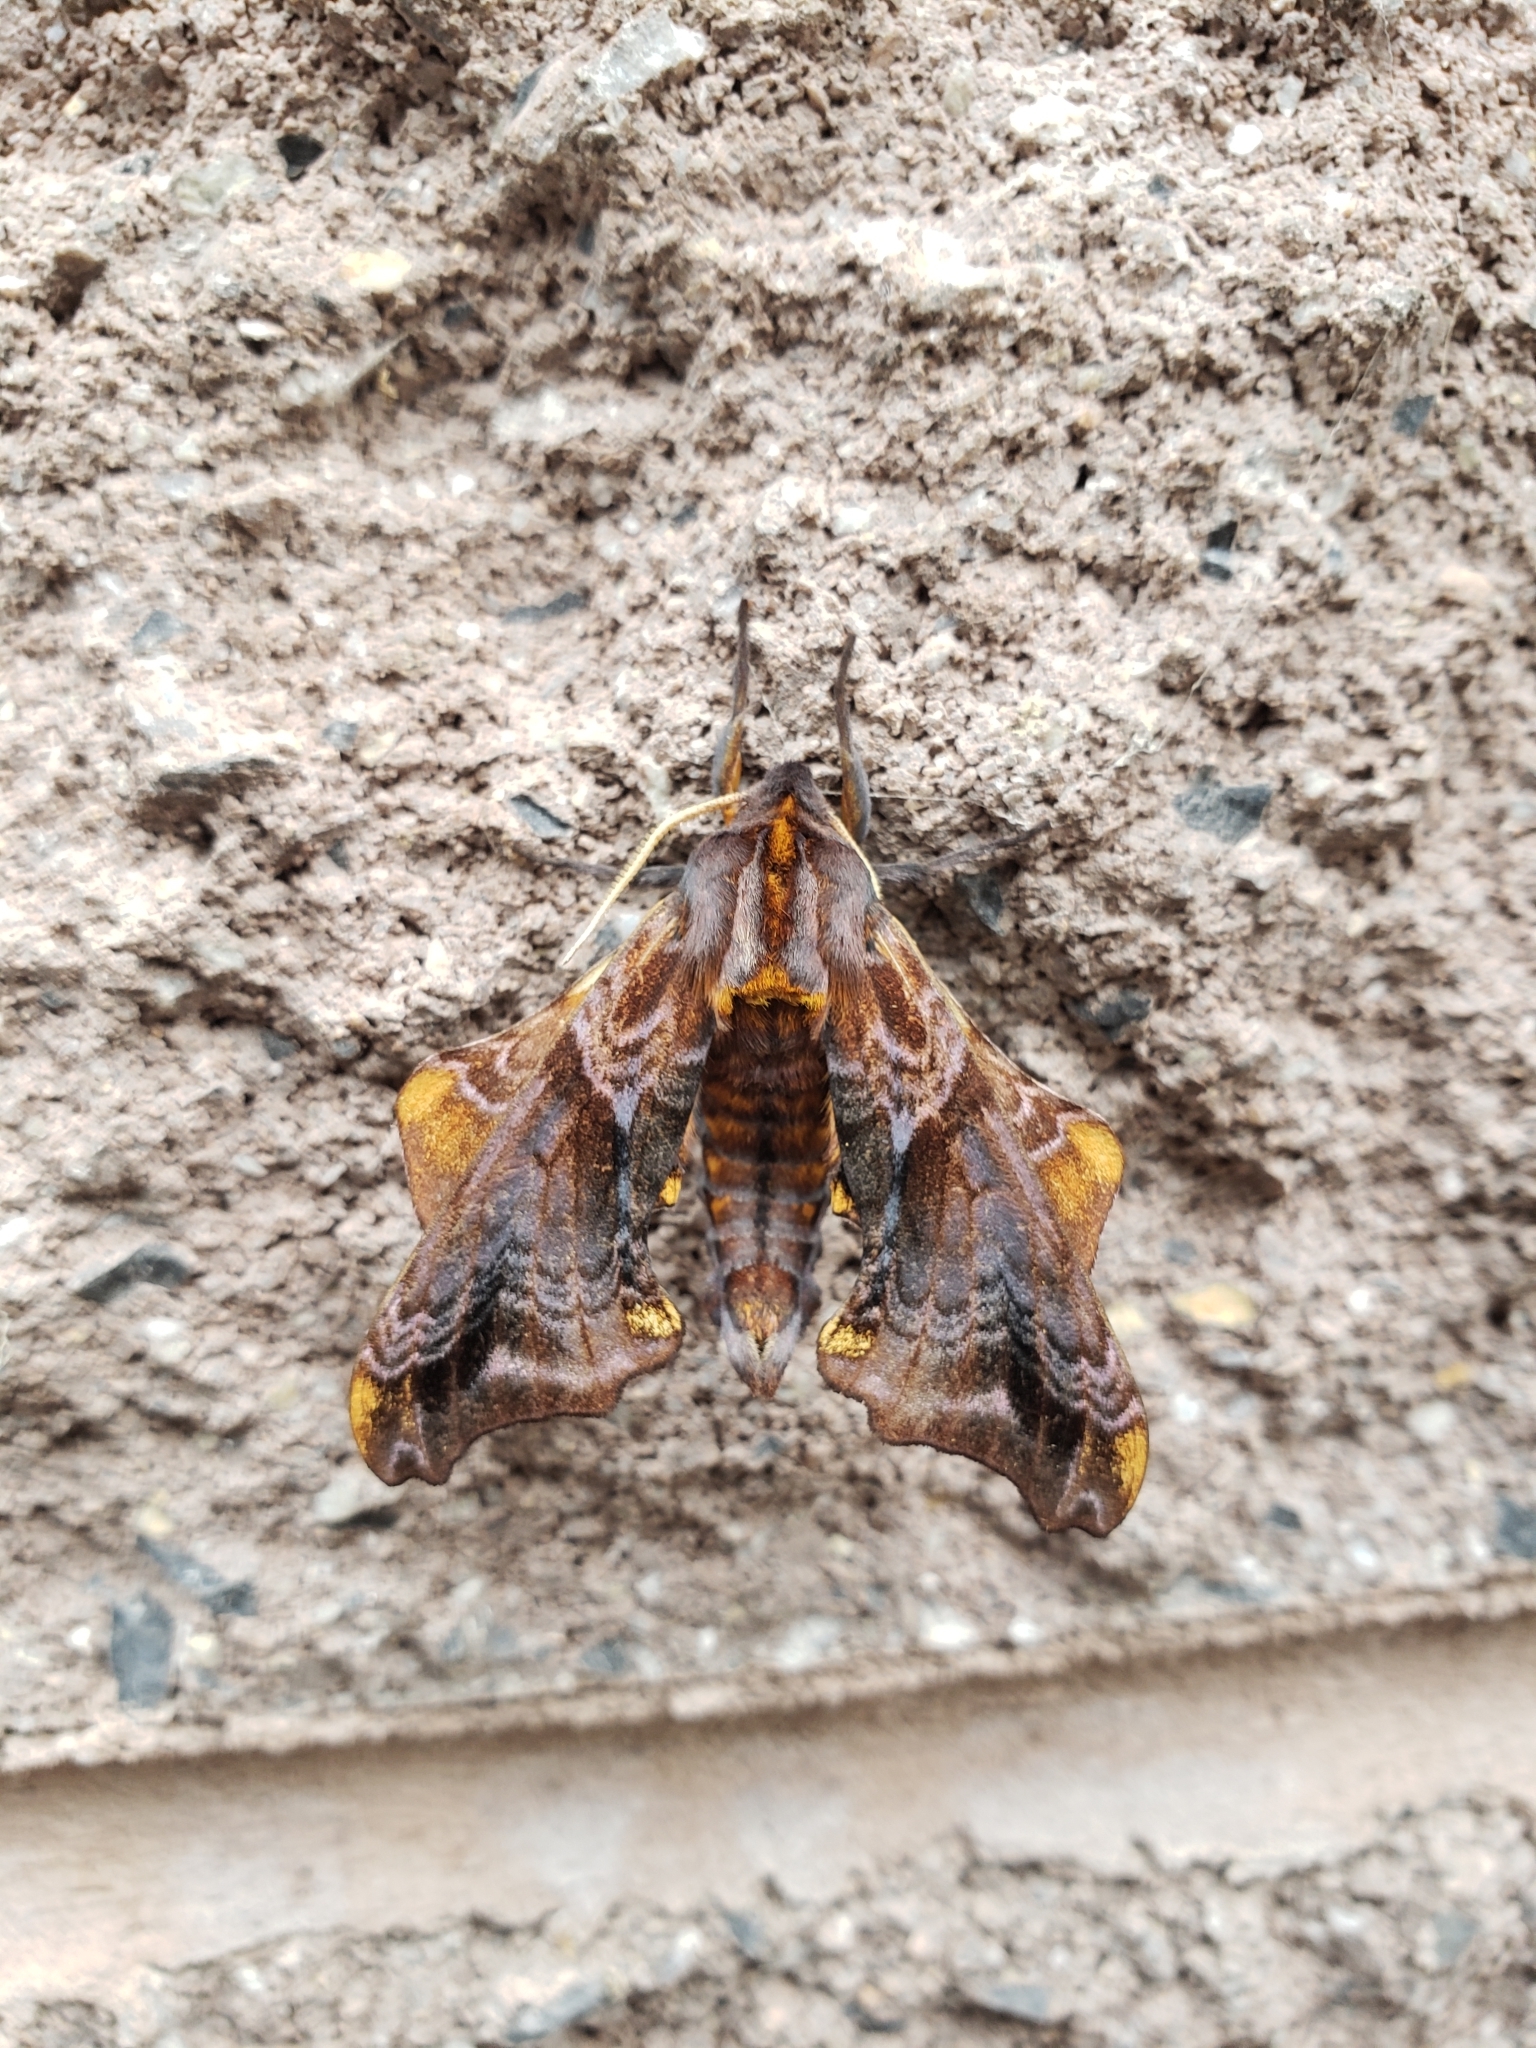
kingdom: Animalia
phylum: Arthropoda
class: Insecta
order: Lepidoptera
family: Sphingidae
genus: Paonias
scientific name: Paonias myops
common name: Small-eyed sphinx
